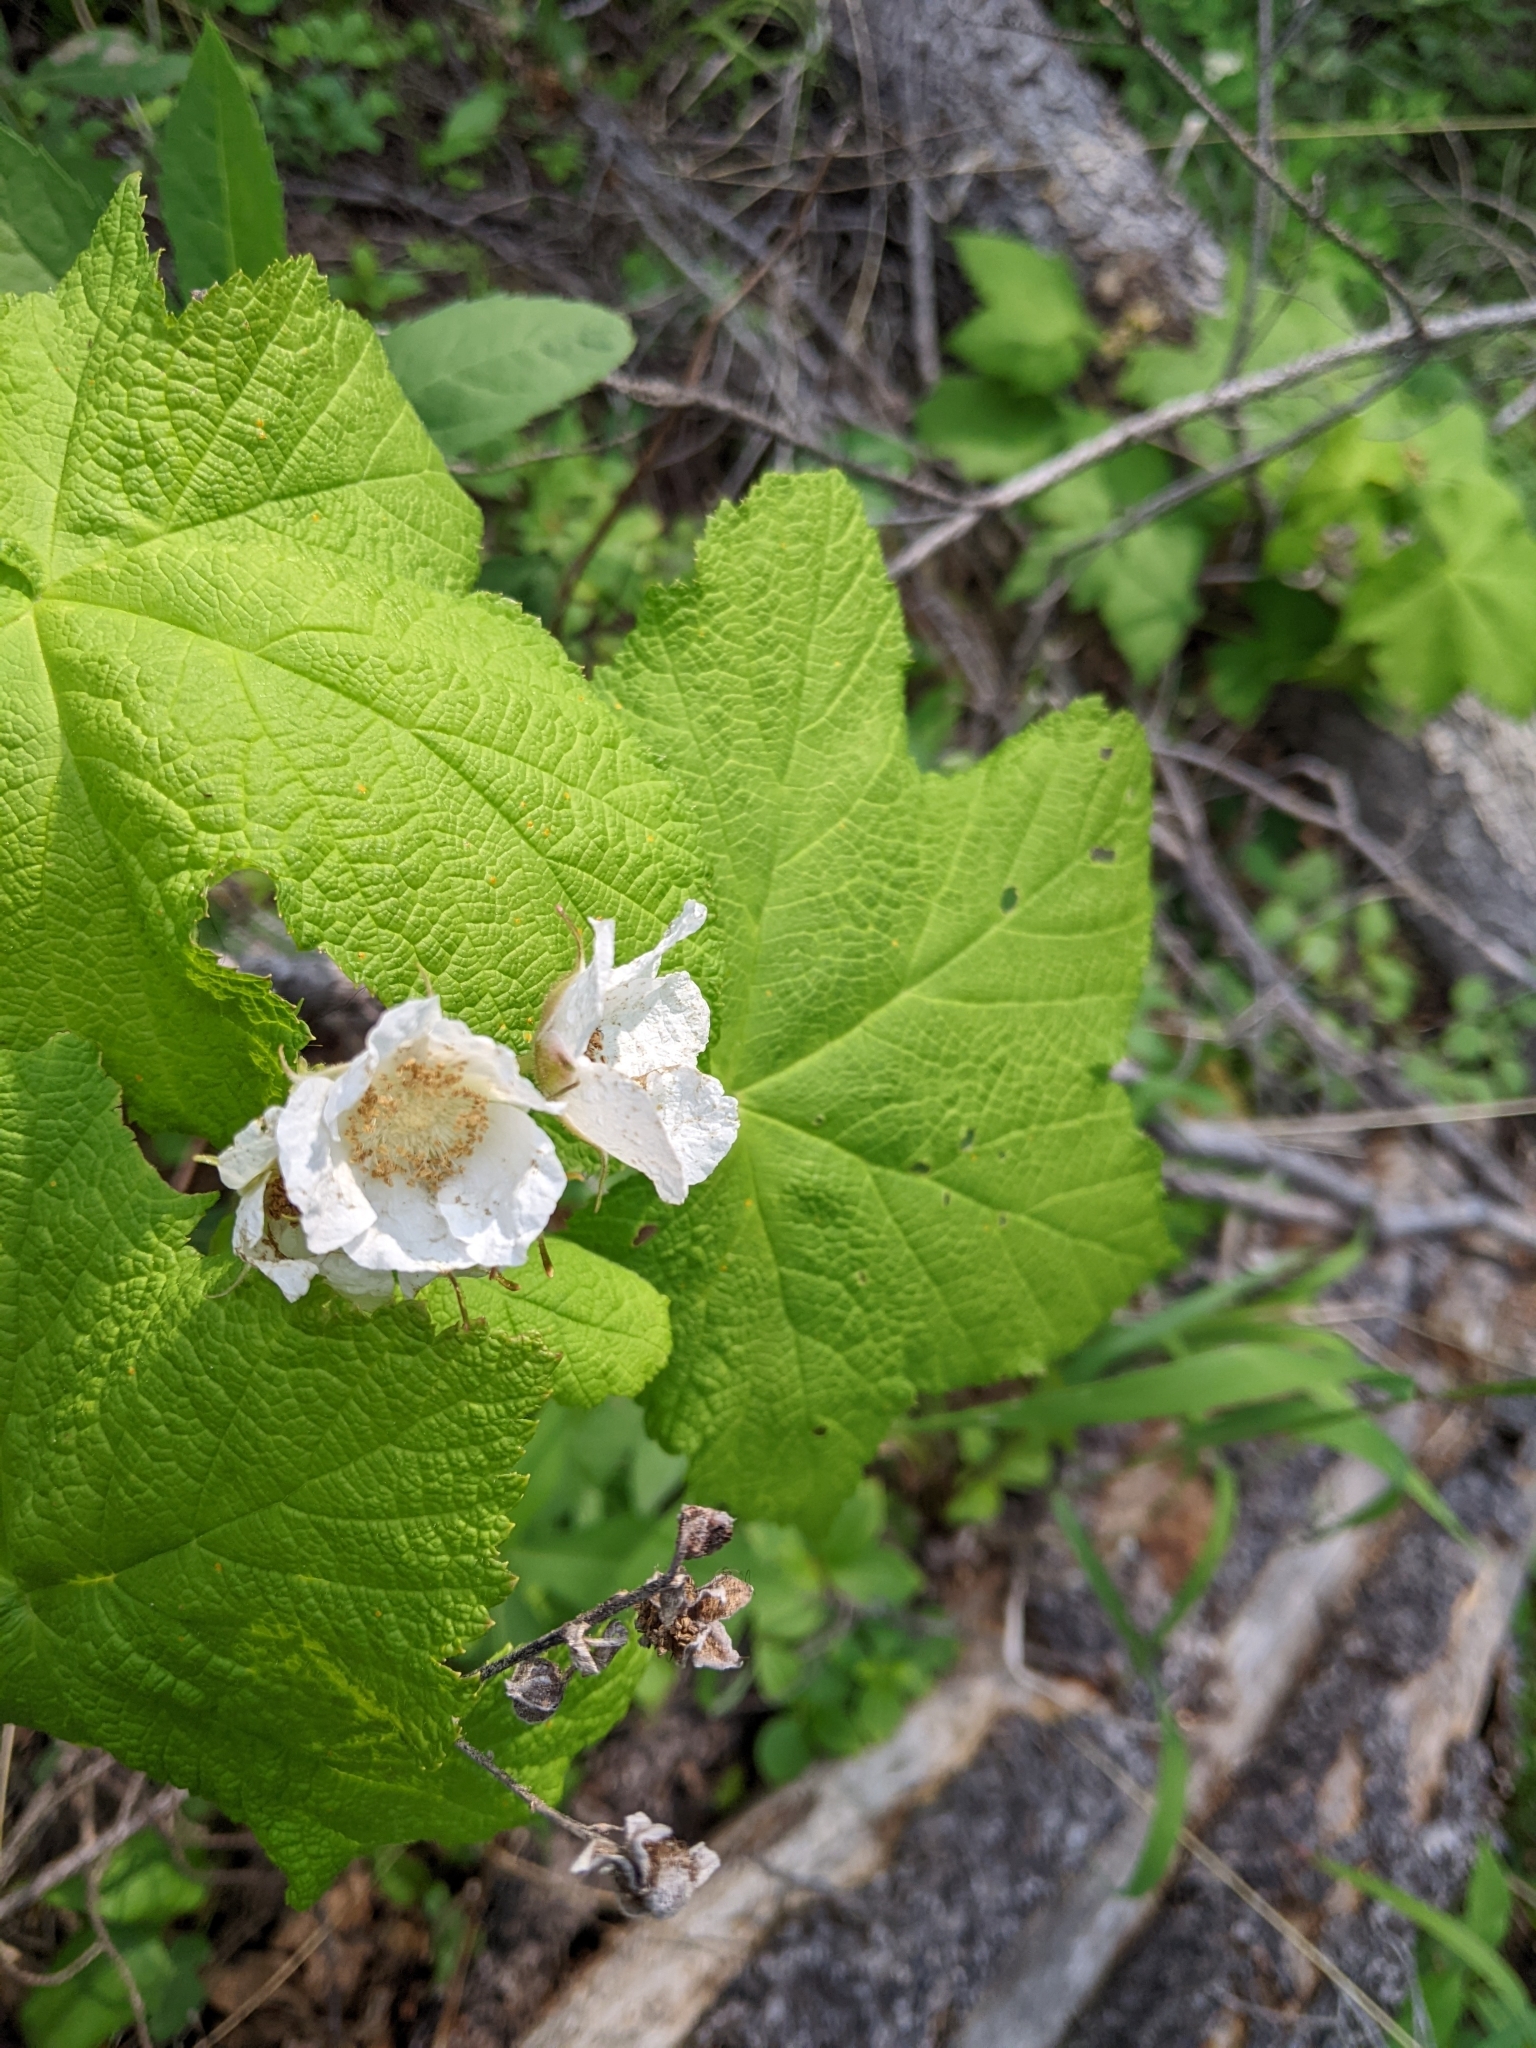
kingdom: Plantae
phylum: Tracheophyta
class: Magnoliopsida
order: Rosales
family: Rosaceae
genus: Rubus
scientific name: Rubus parviflorus
